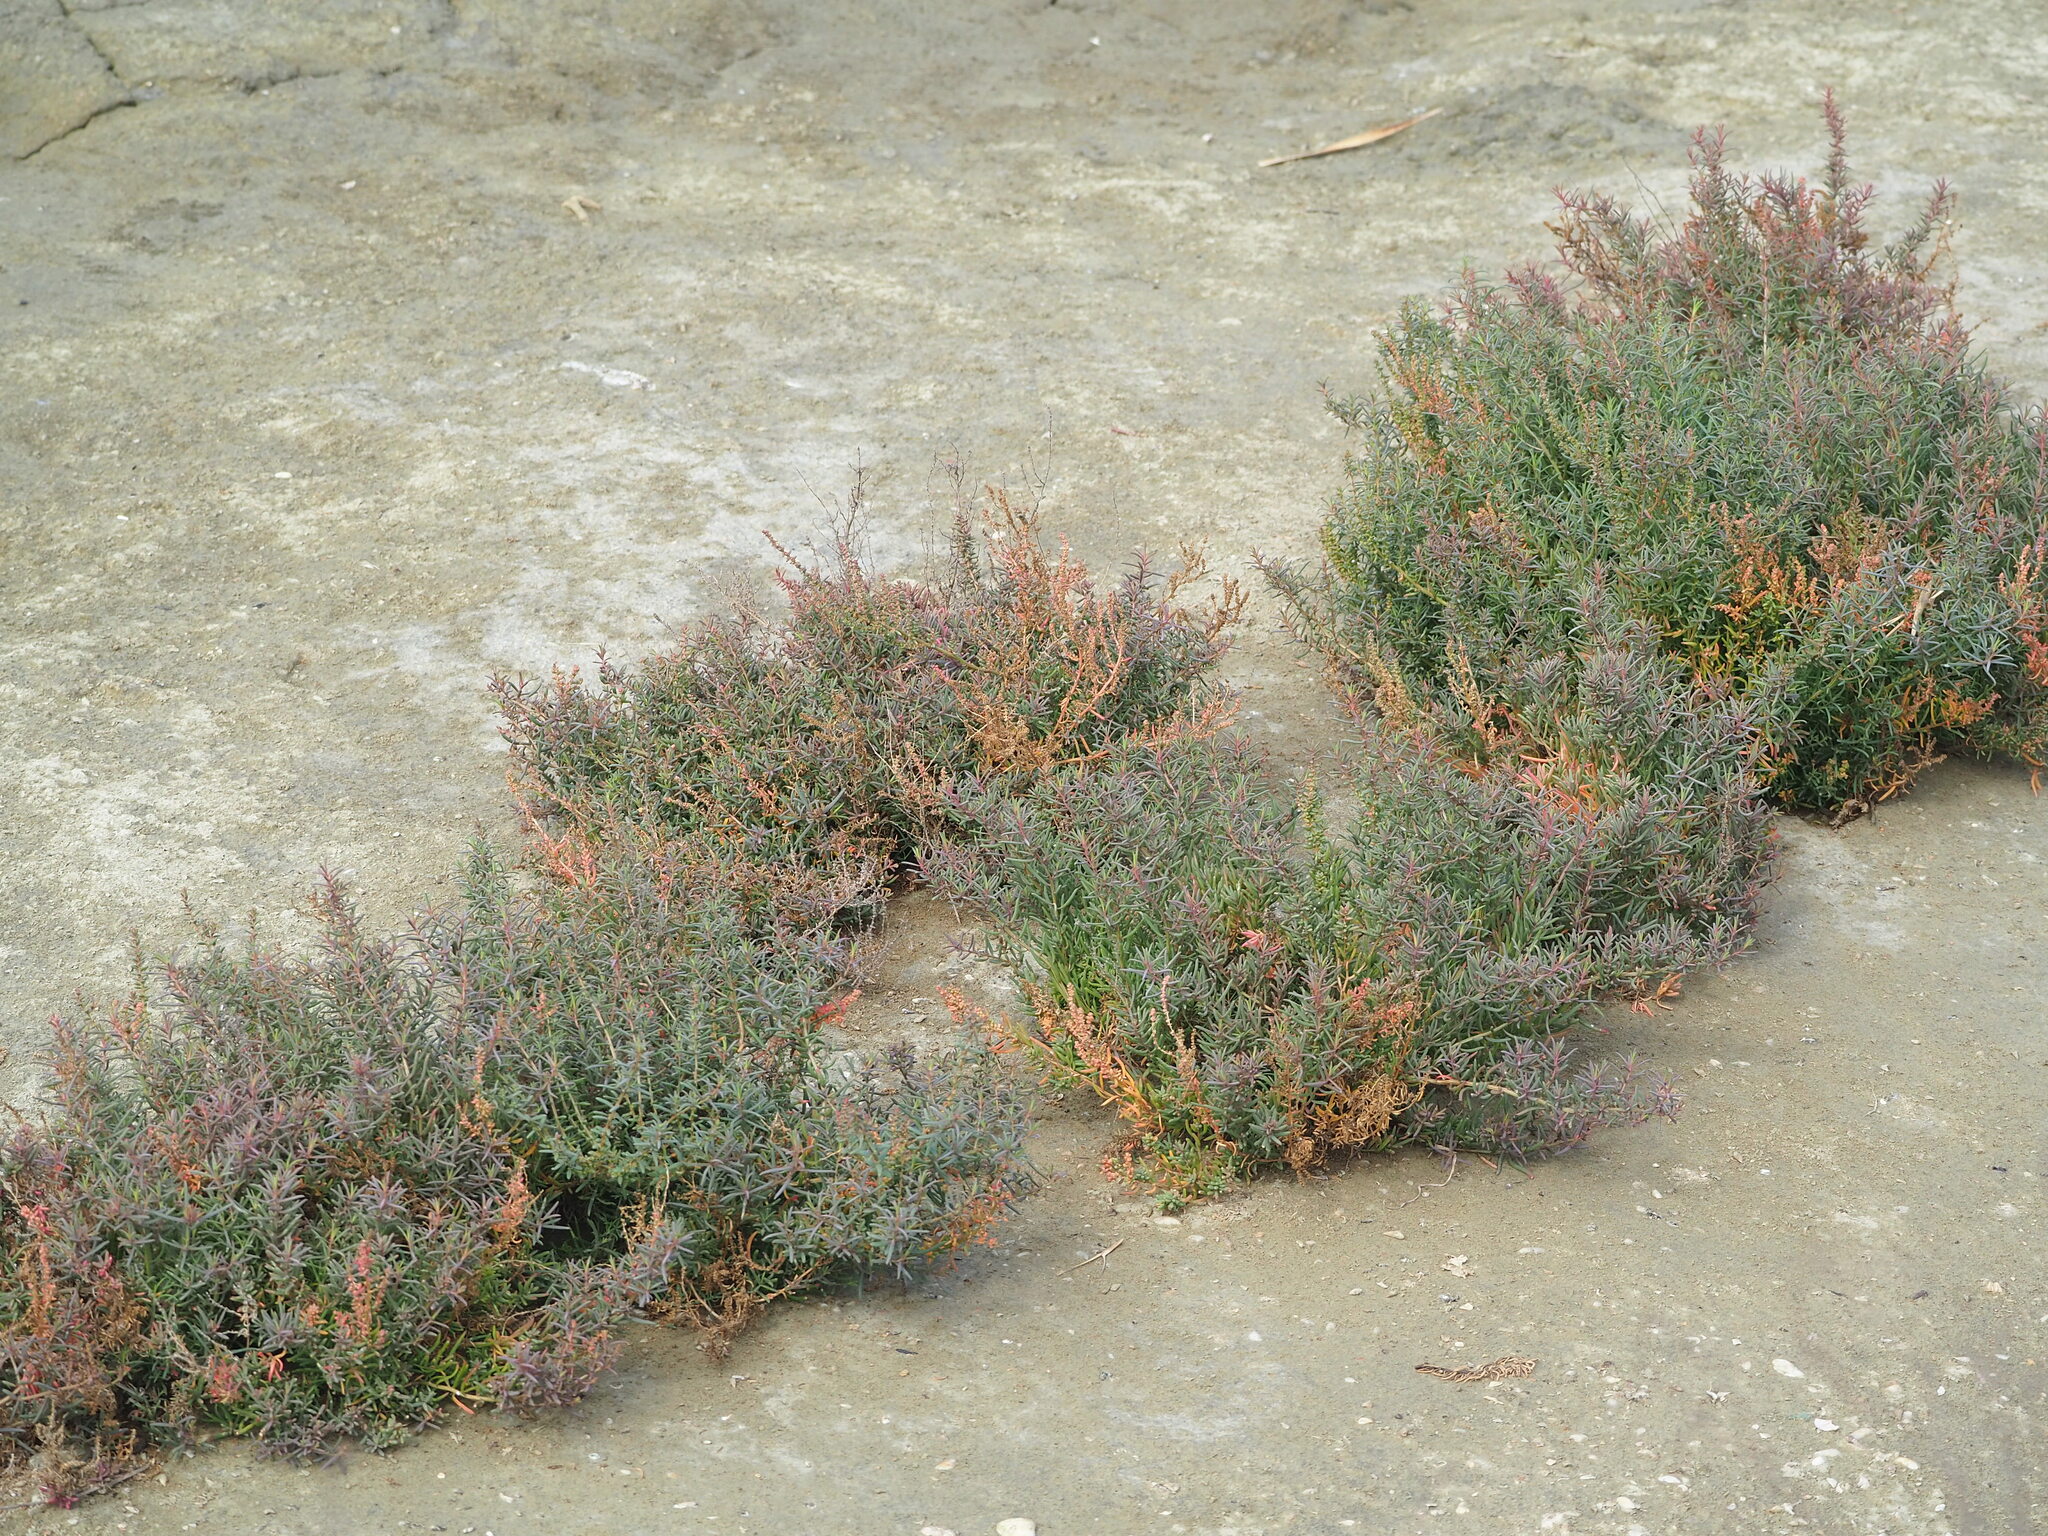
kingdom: Plantae
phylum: Tracheophyta
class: Magnoliopsida
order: Caryophyllales
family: Amaranthaceae
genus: Suaeda
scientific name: Suaeda maritima
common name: Annual sea-blite
